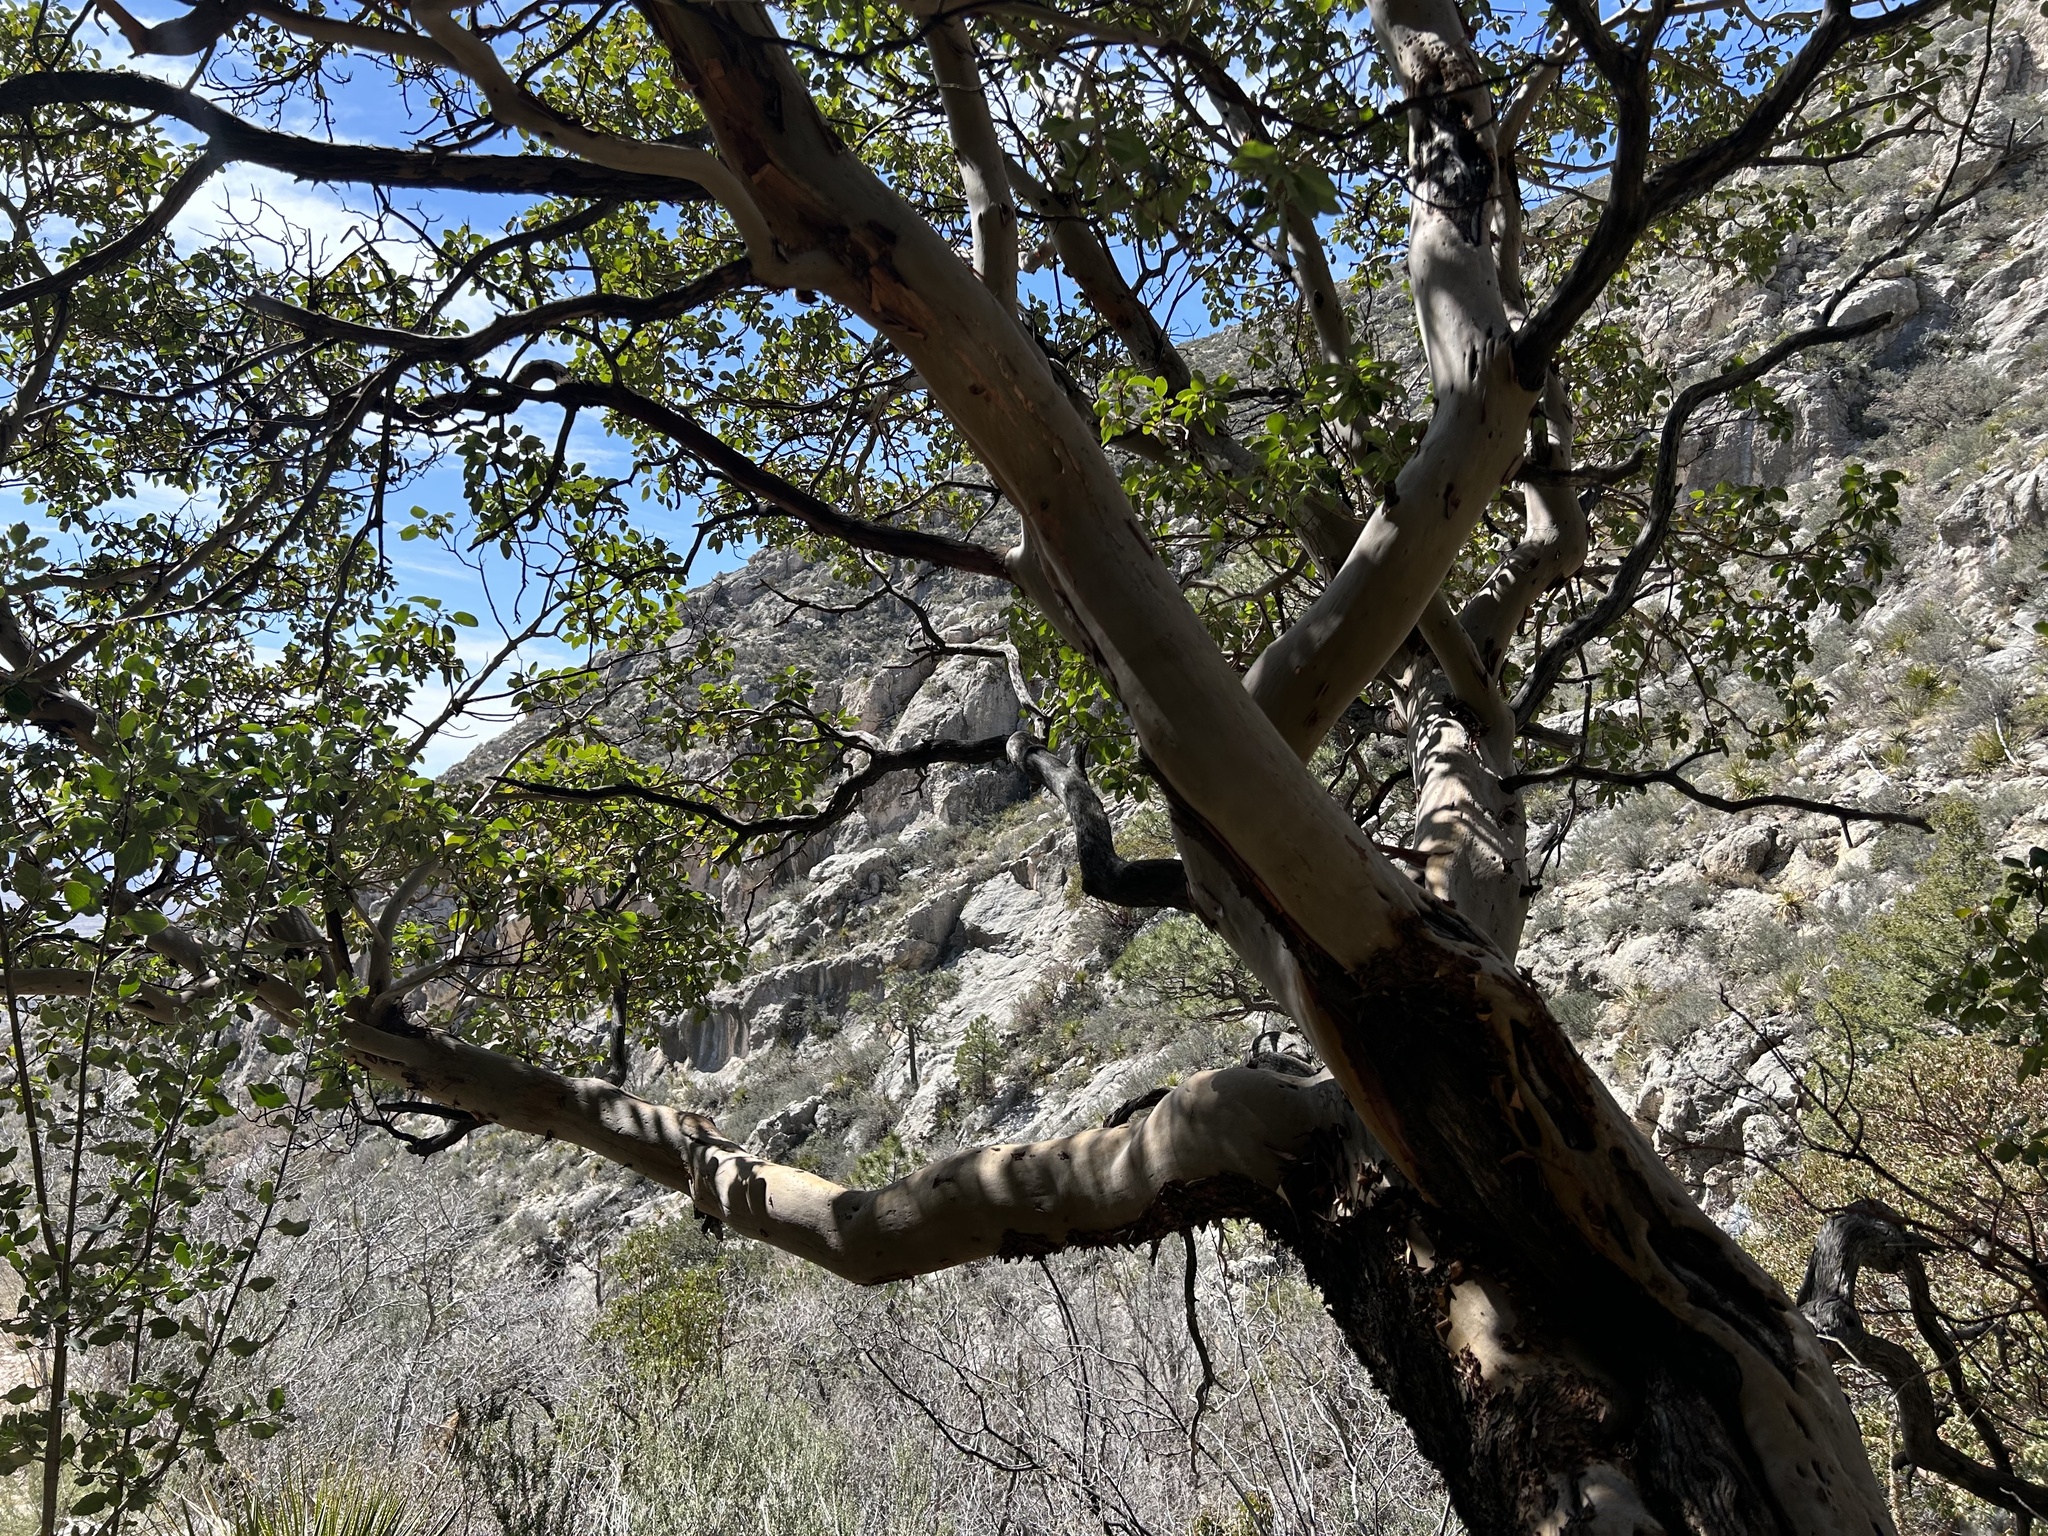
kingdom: Plantae
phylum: Tracheophyta
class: Magnoliopsida
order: Ericales
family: Ericaceae
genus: Arbutus
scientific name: Arbutus xalapensis
